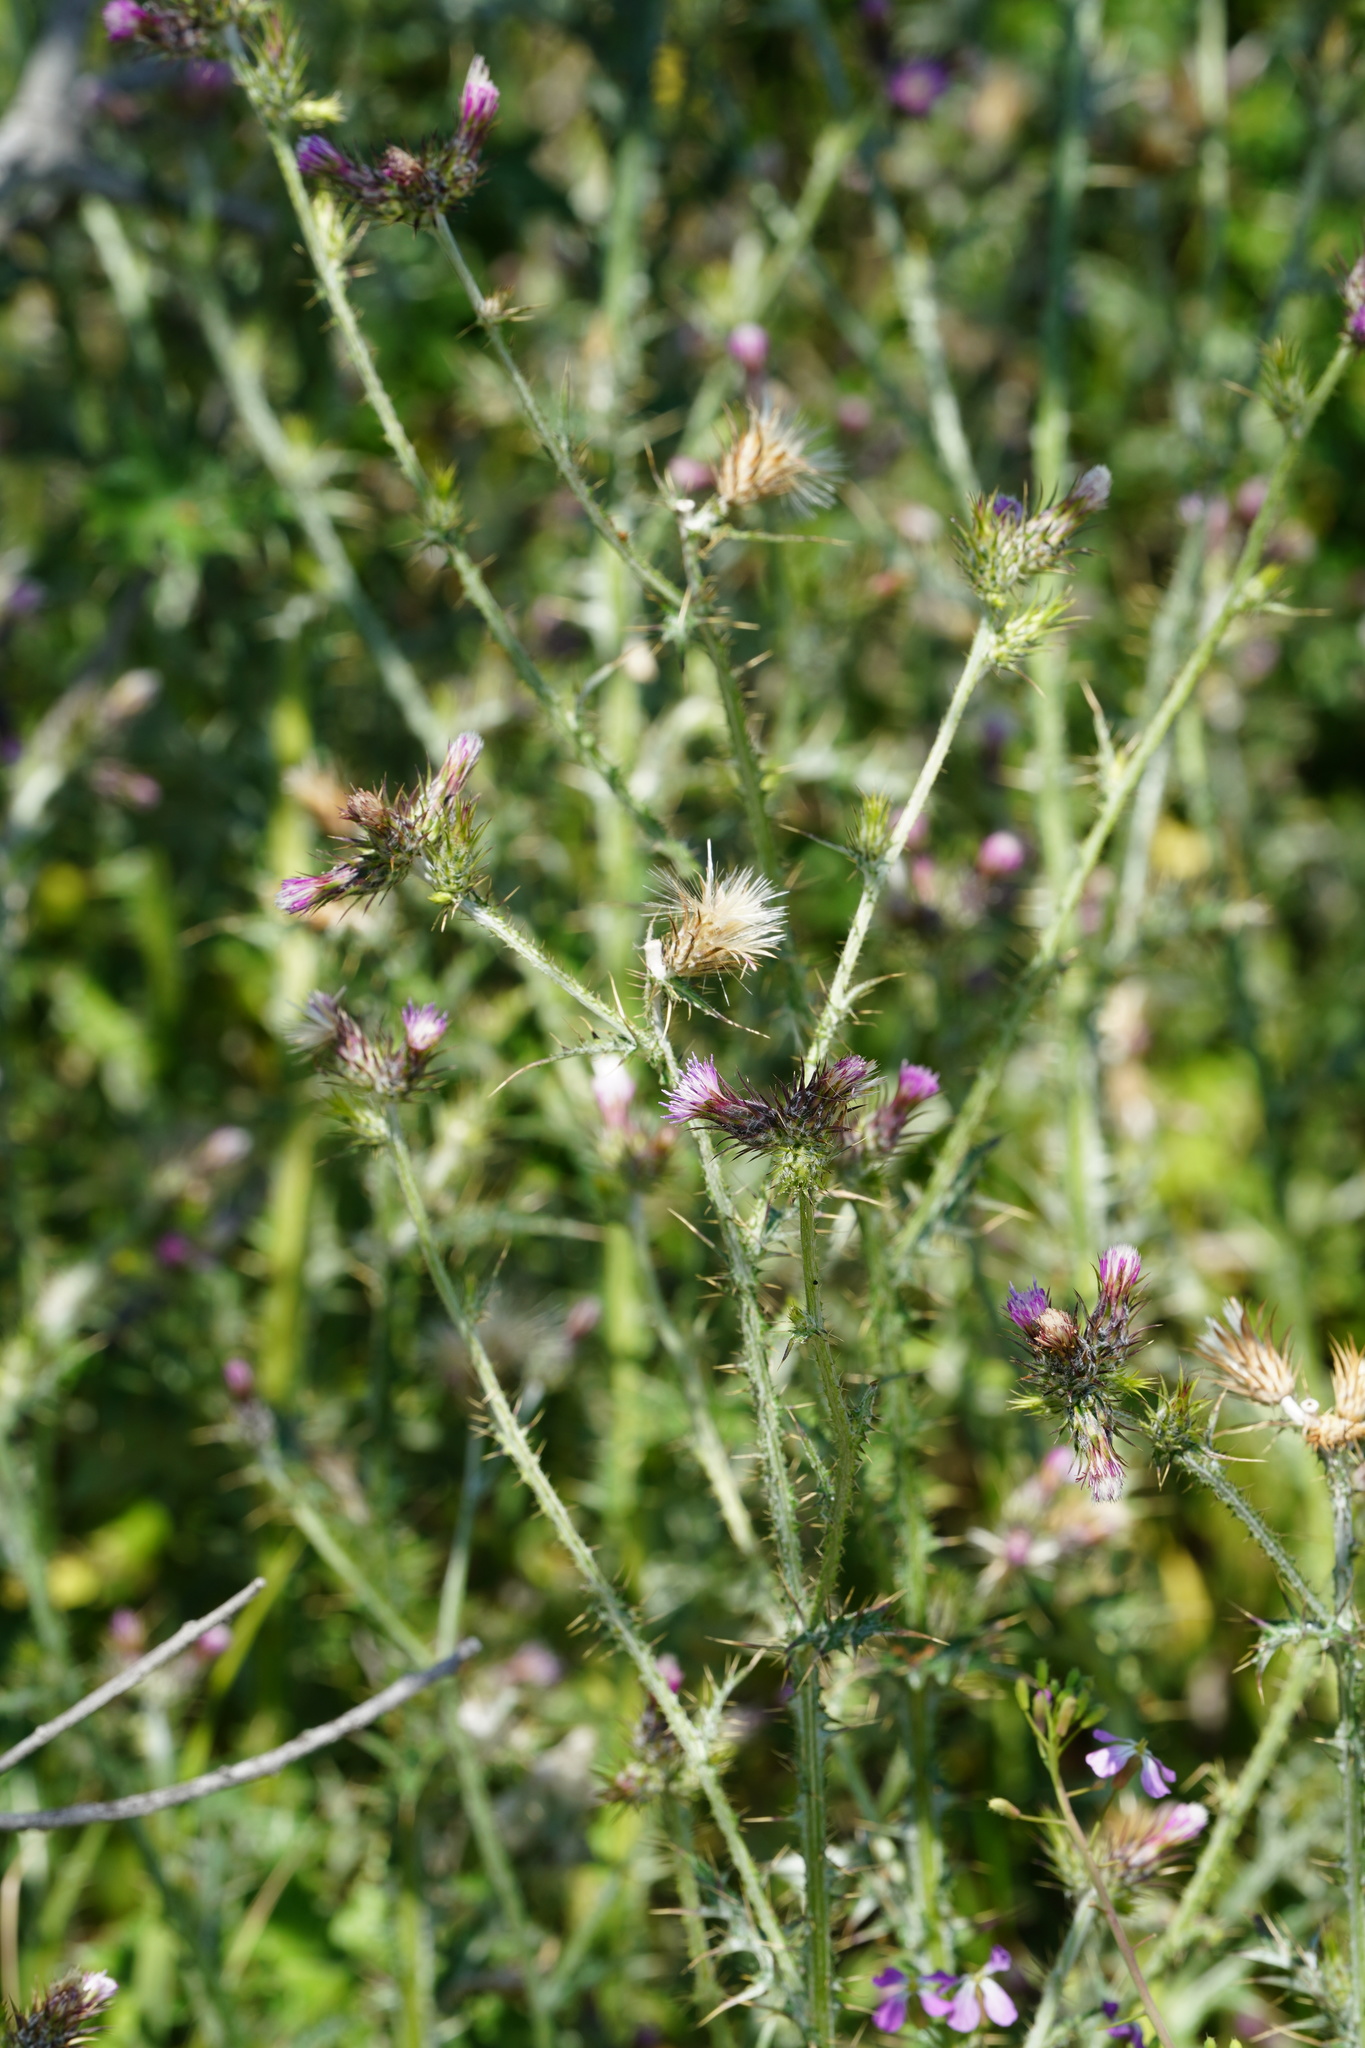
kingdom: Plantae
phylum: Tracheophyta
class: Magnoliopsida
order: Asterales
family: Asteraceae
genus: Carduus
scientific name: Carduus pycnocephalus
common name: Plymouth thistle
